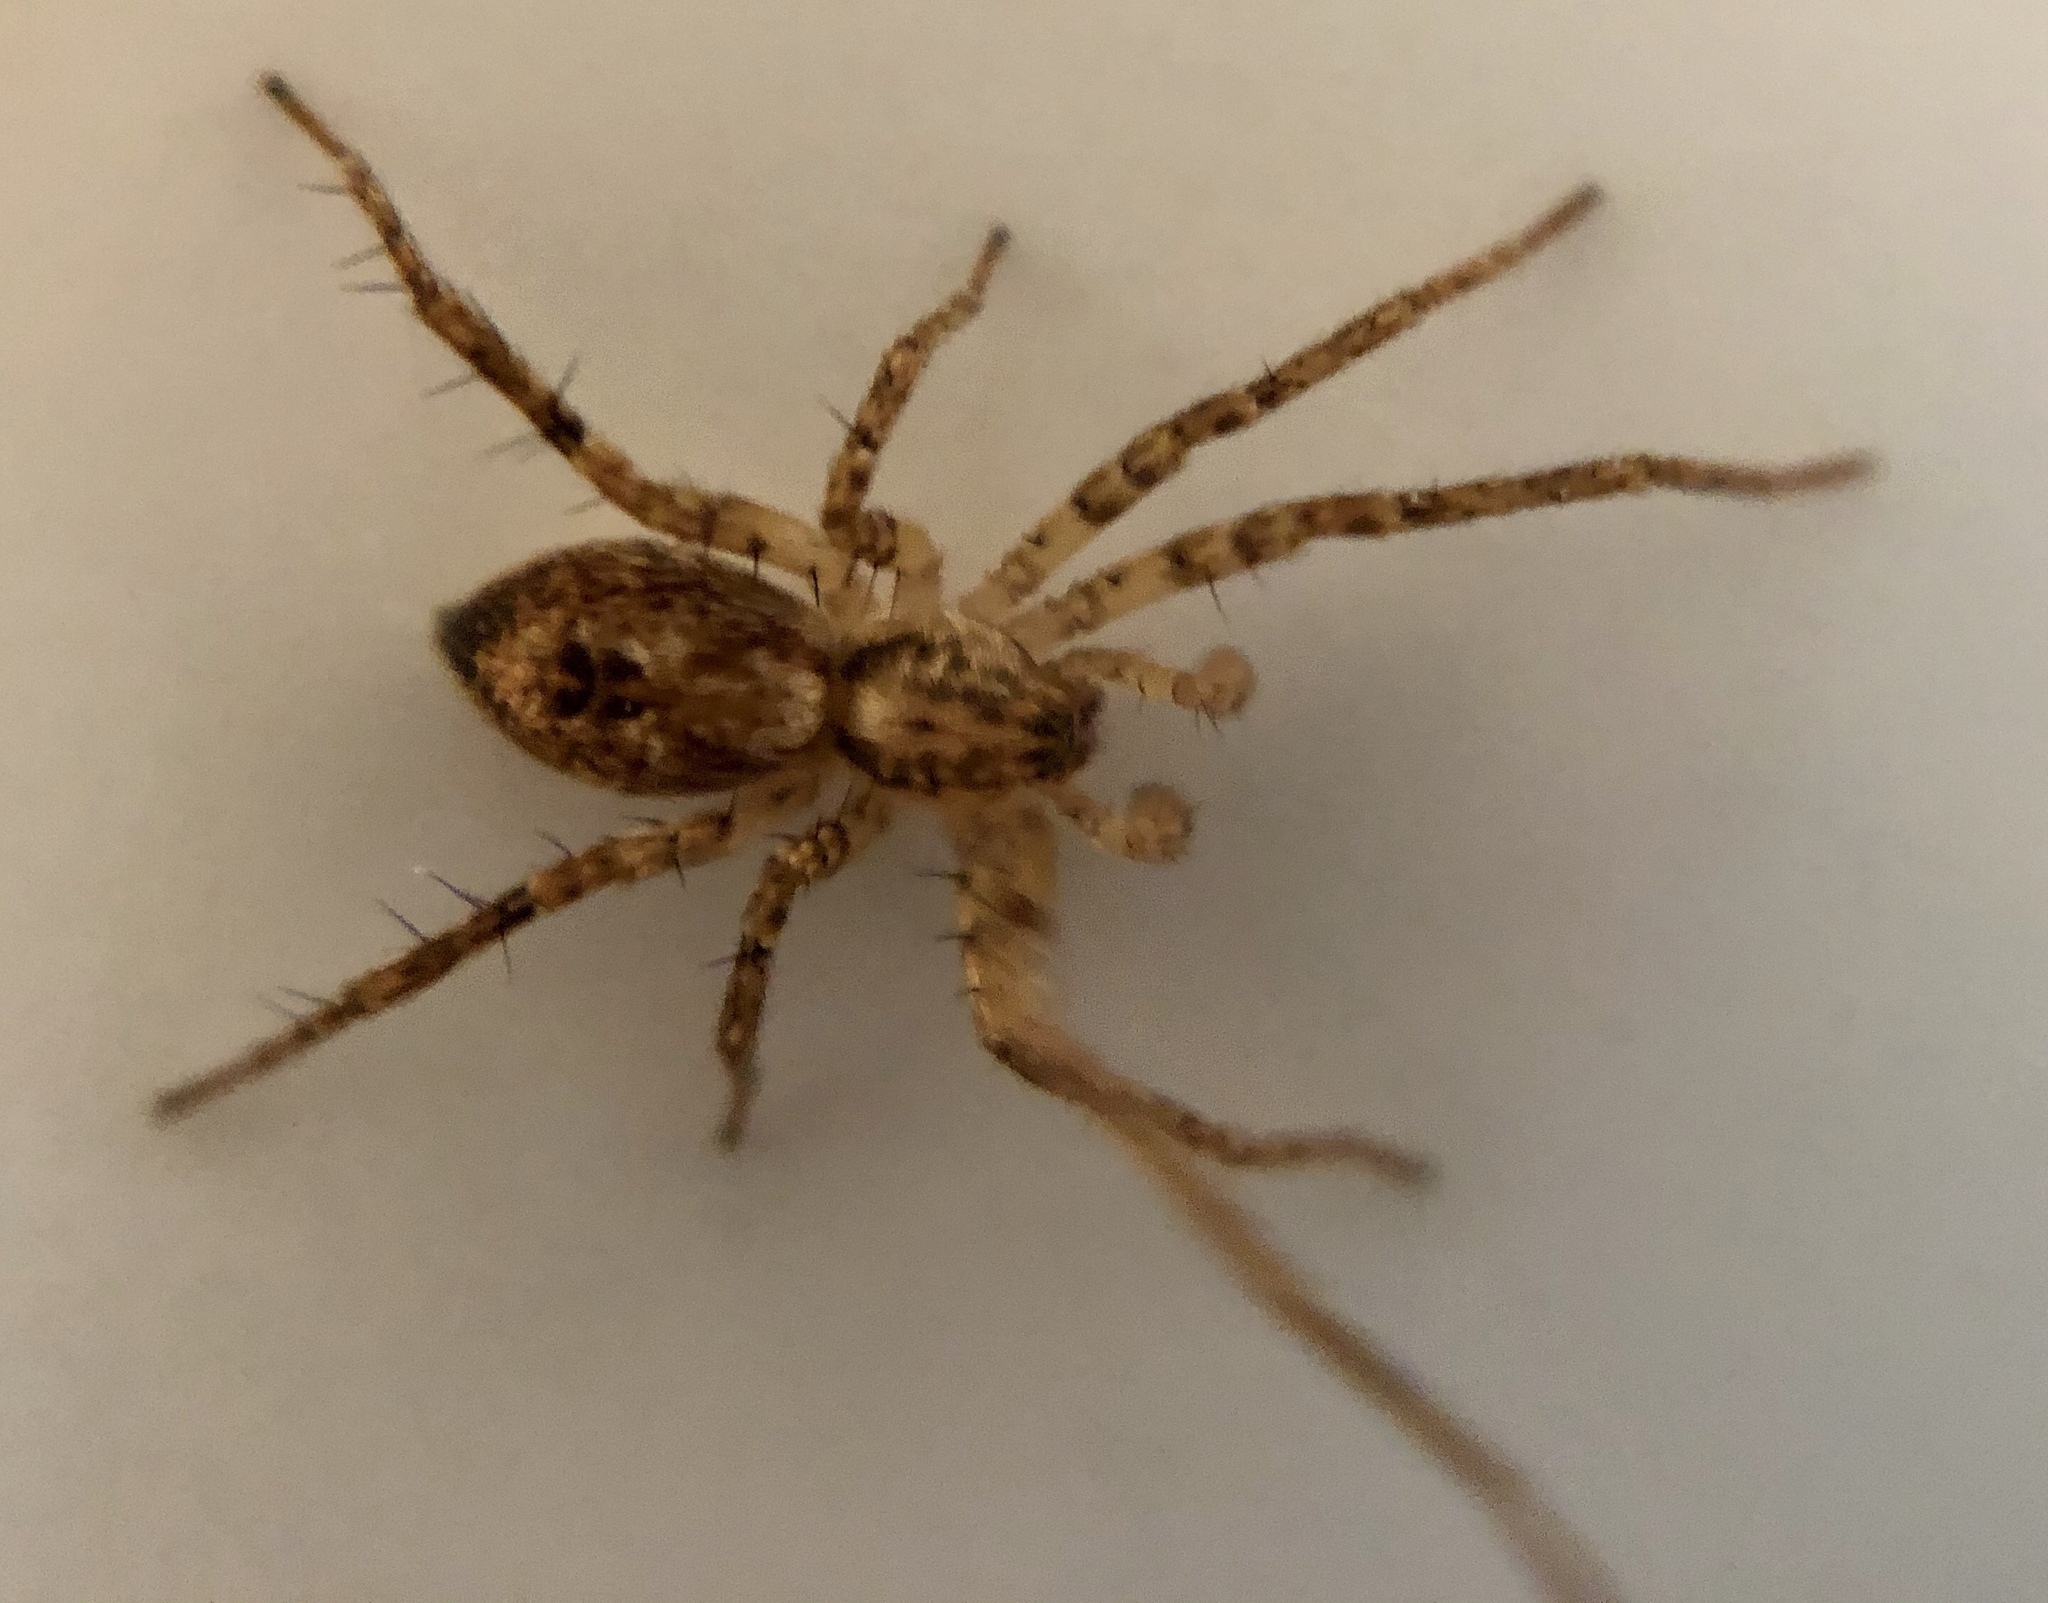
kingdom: Animalia
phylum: Arthropoda
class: Arachnida
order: Araneae
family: Anyphaenidae
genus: Anyphaena
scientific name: Anyphaena accentuata
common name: Buzzing spider
